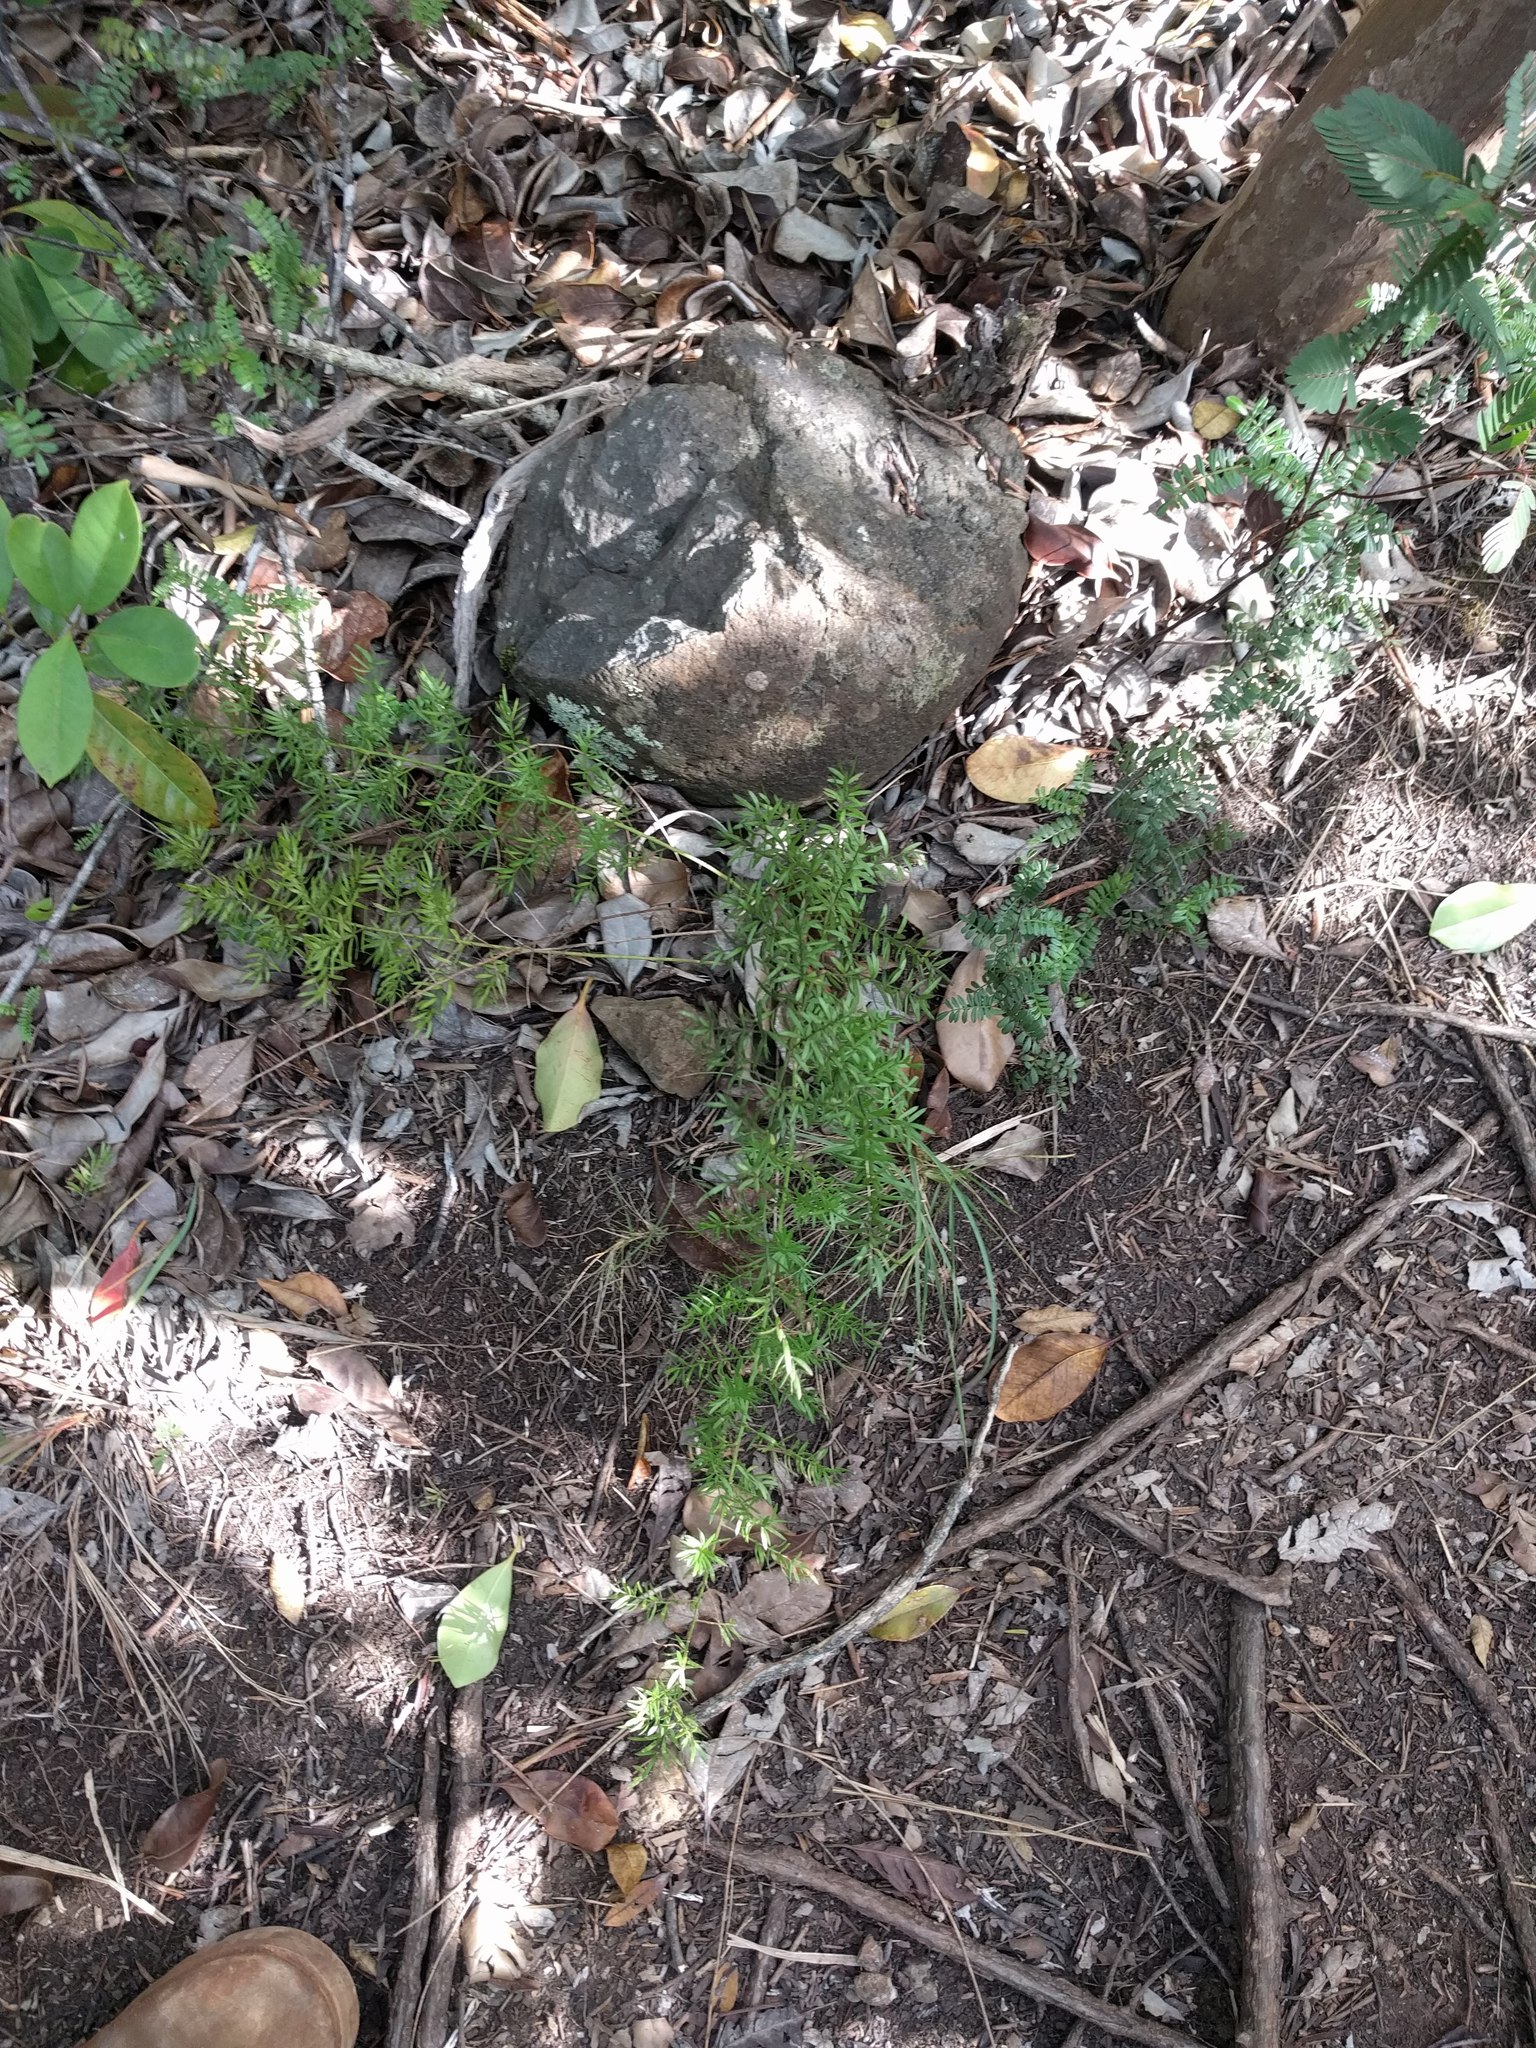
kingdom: Plantae
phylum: Tracheophyta
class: Liliopsida
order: Asparagales
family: Asparagaceae
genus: Asparagus
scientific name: Asparagus aethiopicus
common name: Sprenger's asparagus fern
